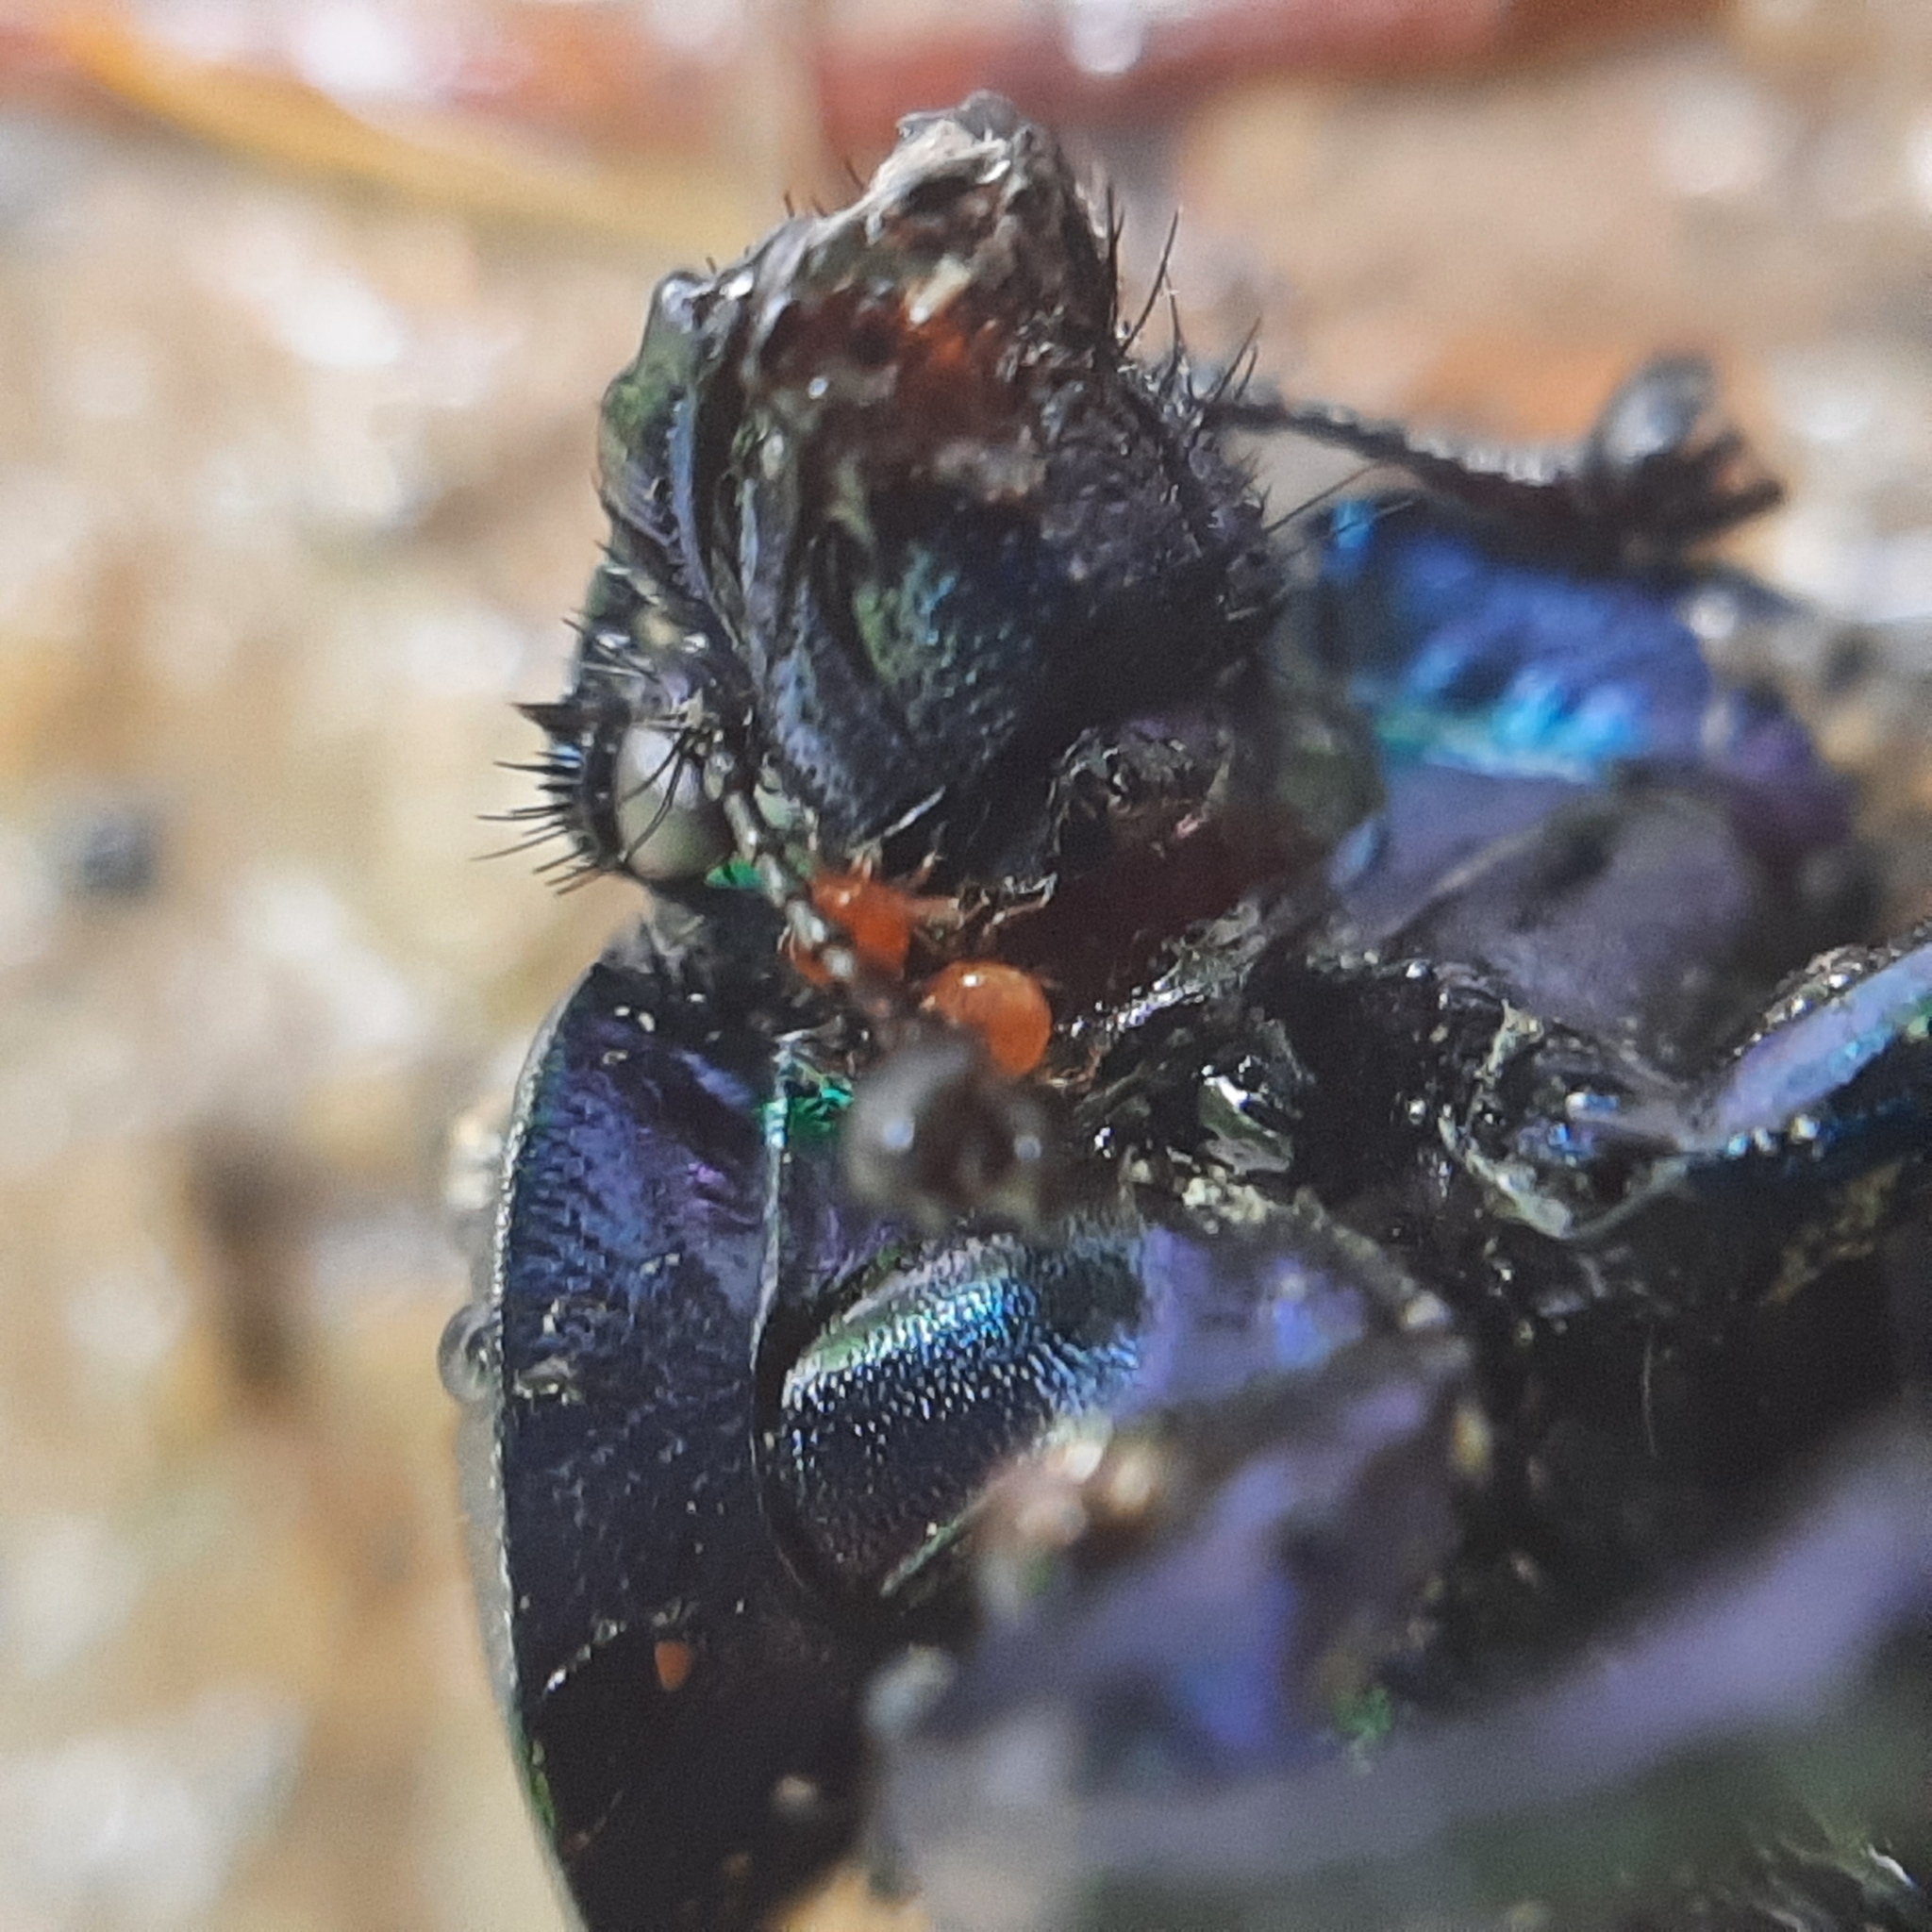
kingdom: Animalia
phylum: Arthropoda
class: Insecta
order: Coleoptera
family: Geotrupidae
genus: Trypocopris
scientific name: Trypocopris vernalis
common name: Spring dumbledor
